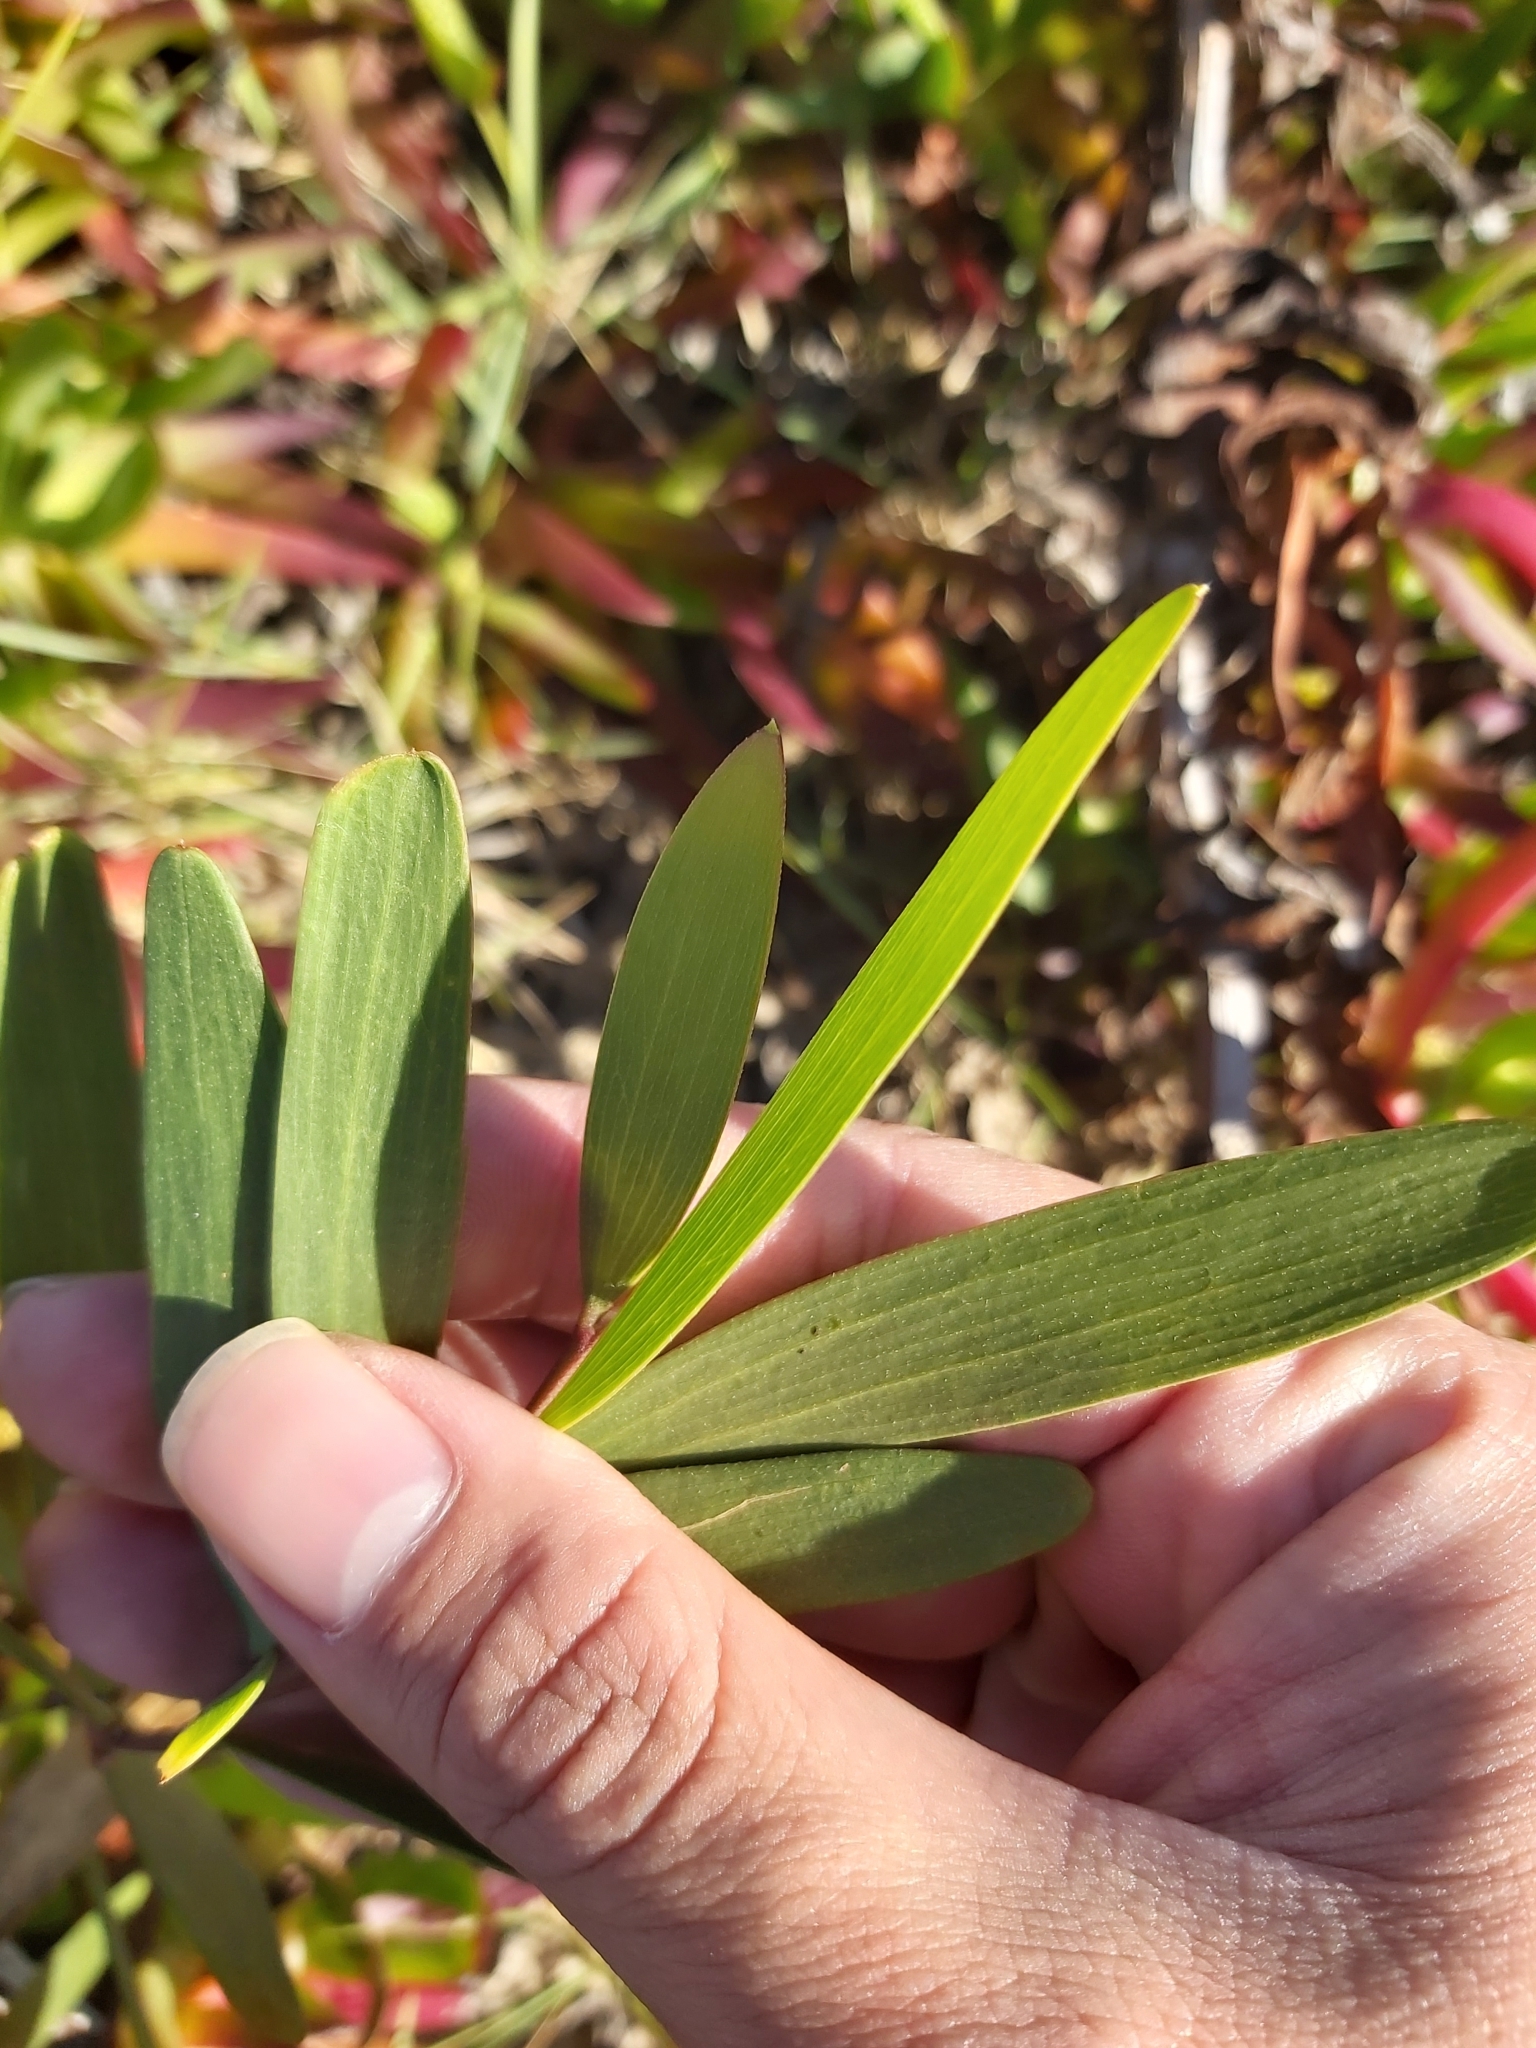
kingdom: Plantae
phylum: Tracheophyta
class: Magnoliopsida
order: Fabales
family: Fabaceae
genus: Acacia
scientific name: Acacia longifolia
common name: Sydney golden wattle
